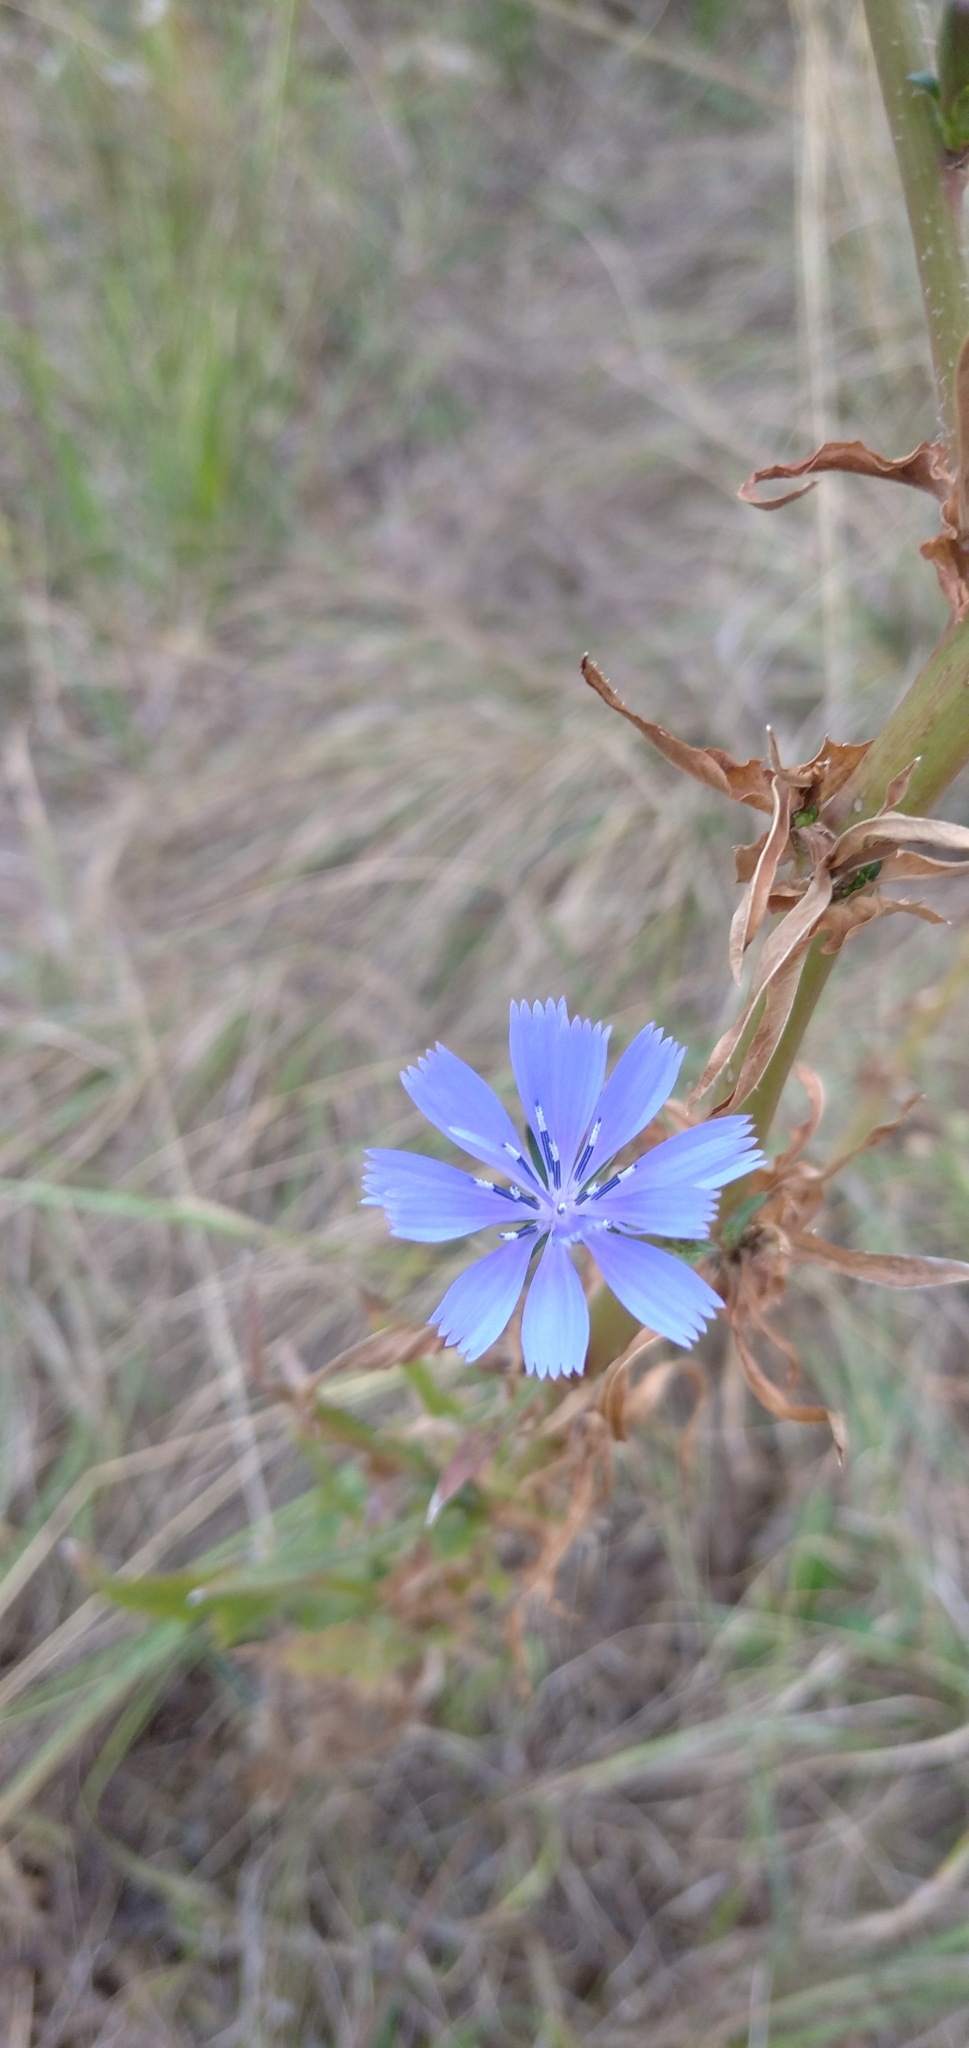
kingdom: Plantae
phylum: Tracheophyta
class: Magnoliopsida
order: Asterales
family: Asteraceae
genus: Cichorium
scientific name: Cichorium intybus
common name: Chicory
